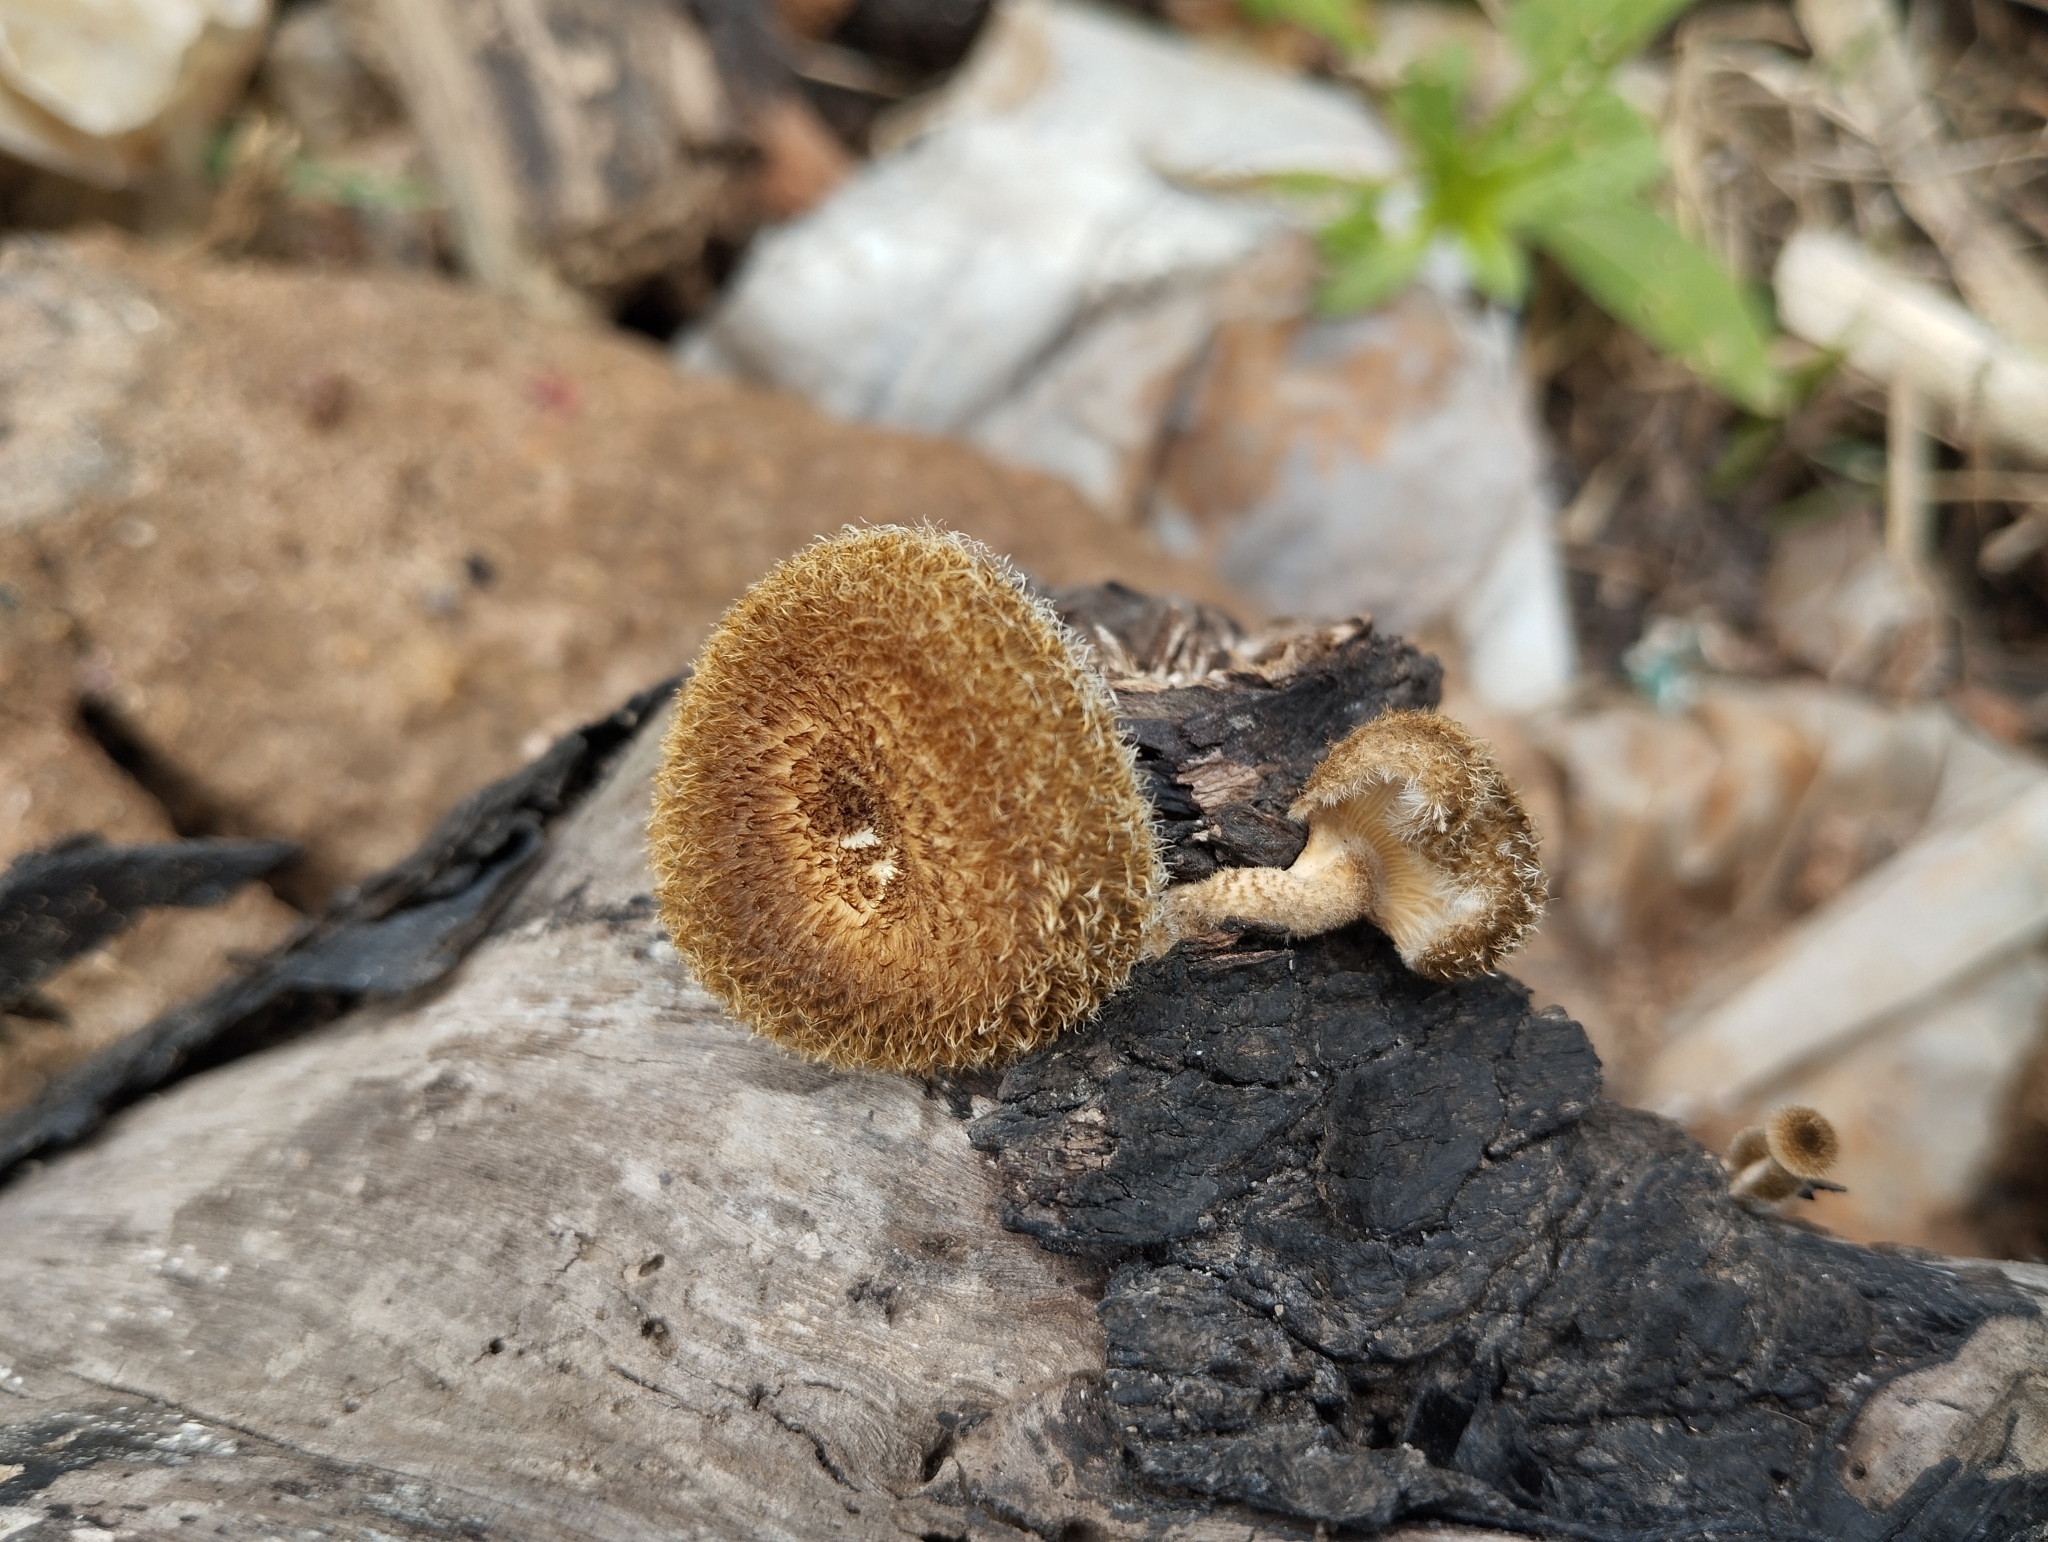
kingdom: Fungi
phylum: Basidiomycota
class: Agaricomycetes
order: Polyporales
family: Polyporaceae
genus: Lentinus
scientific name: Lentinus crinitus
